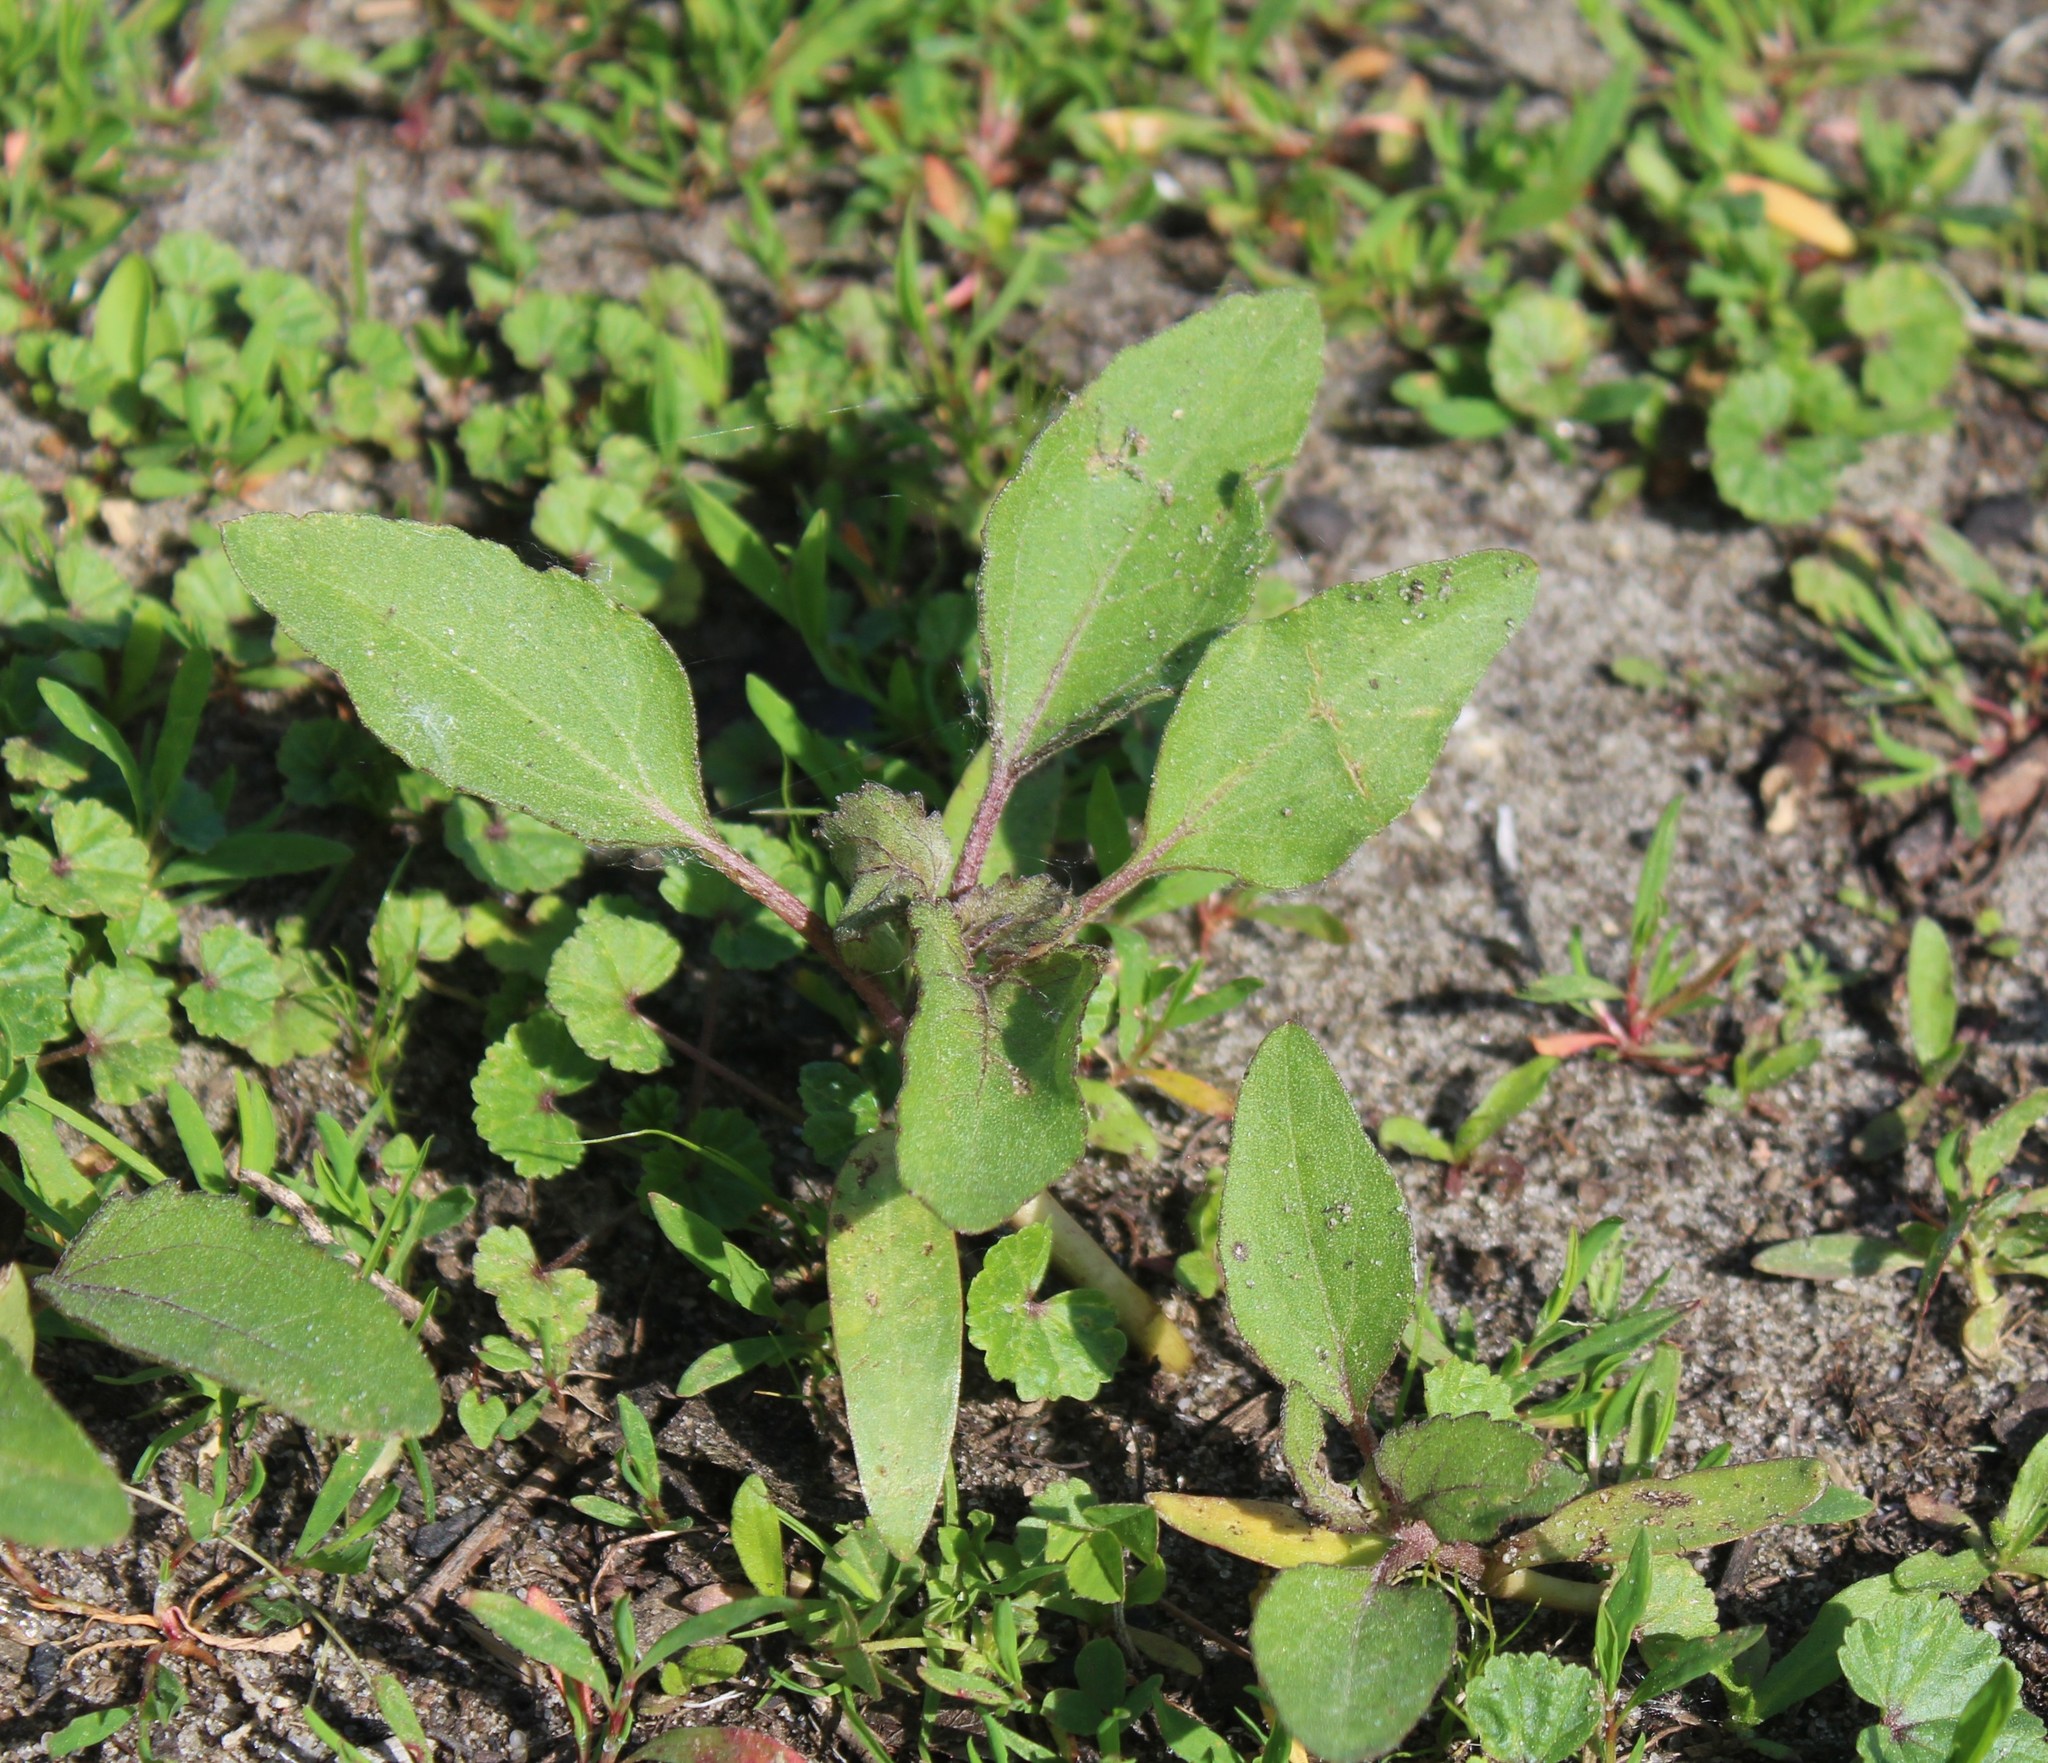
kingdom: Plantae
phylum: Tracheophyta
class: Magnoliopsida
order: Asterales
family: Asteraceae
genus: Xanthium
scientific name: Xanthium orientale
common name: Californian burr
